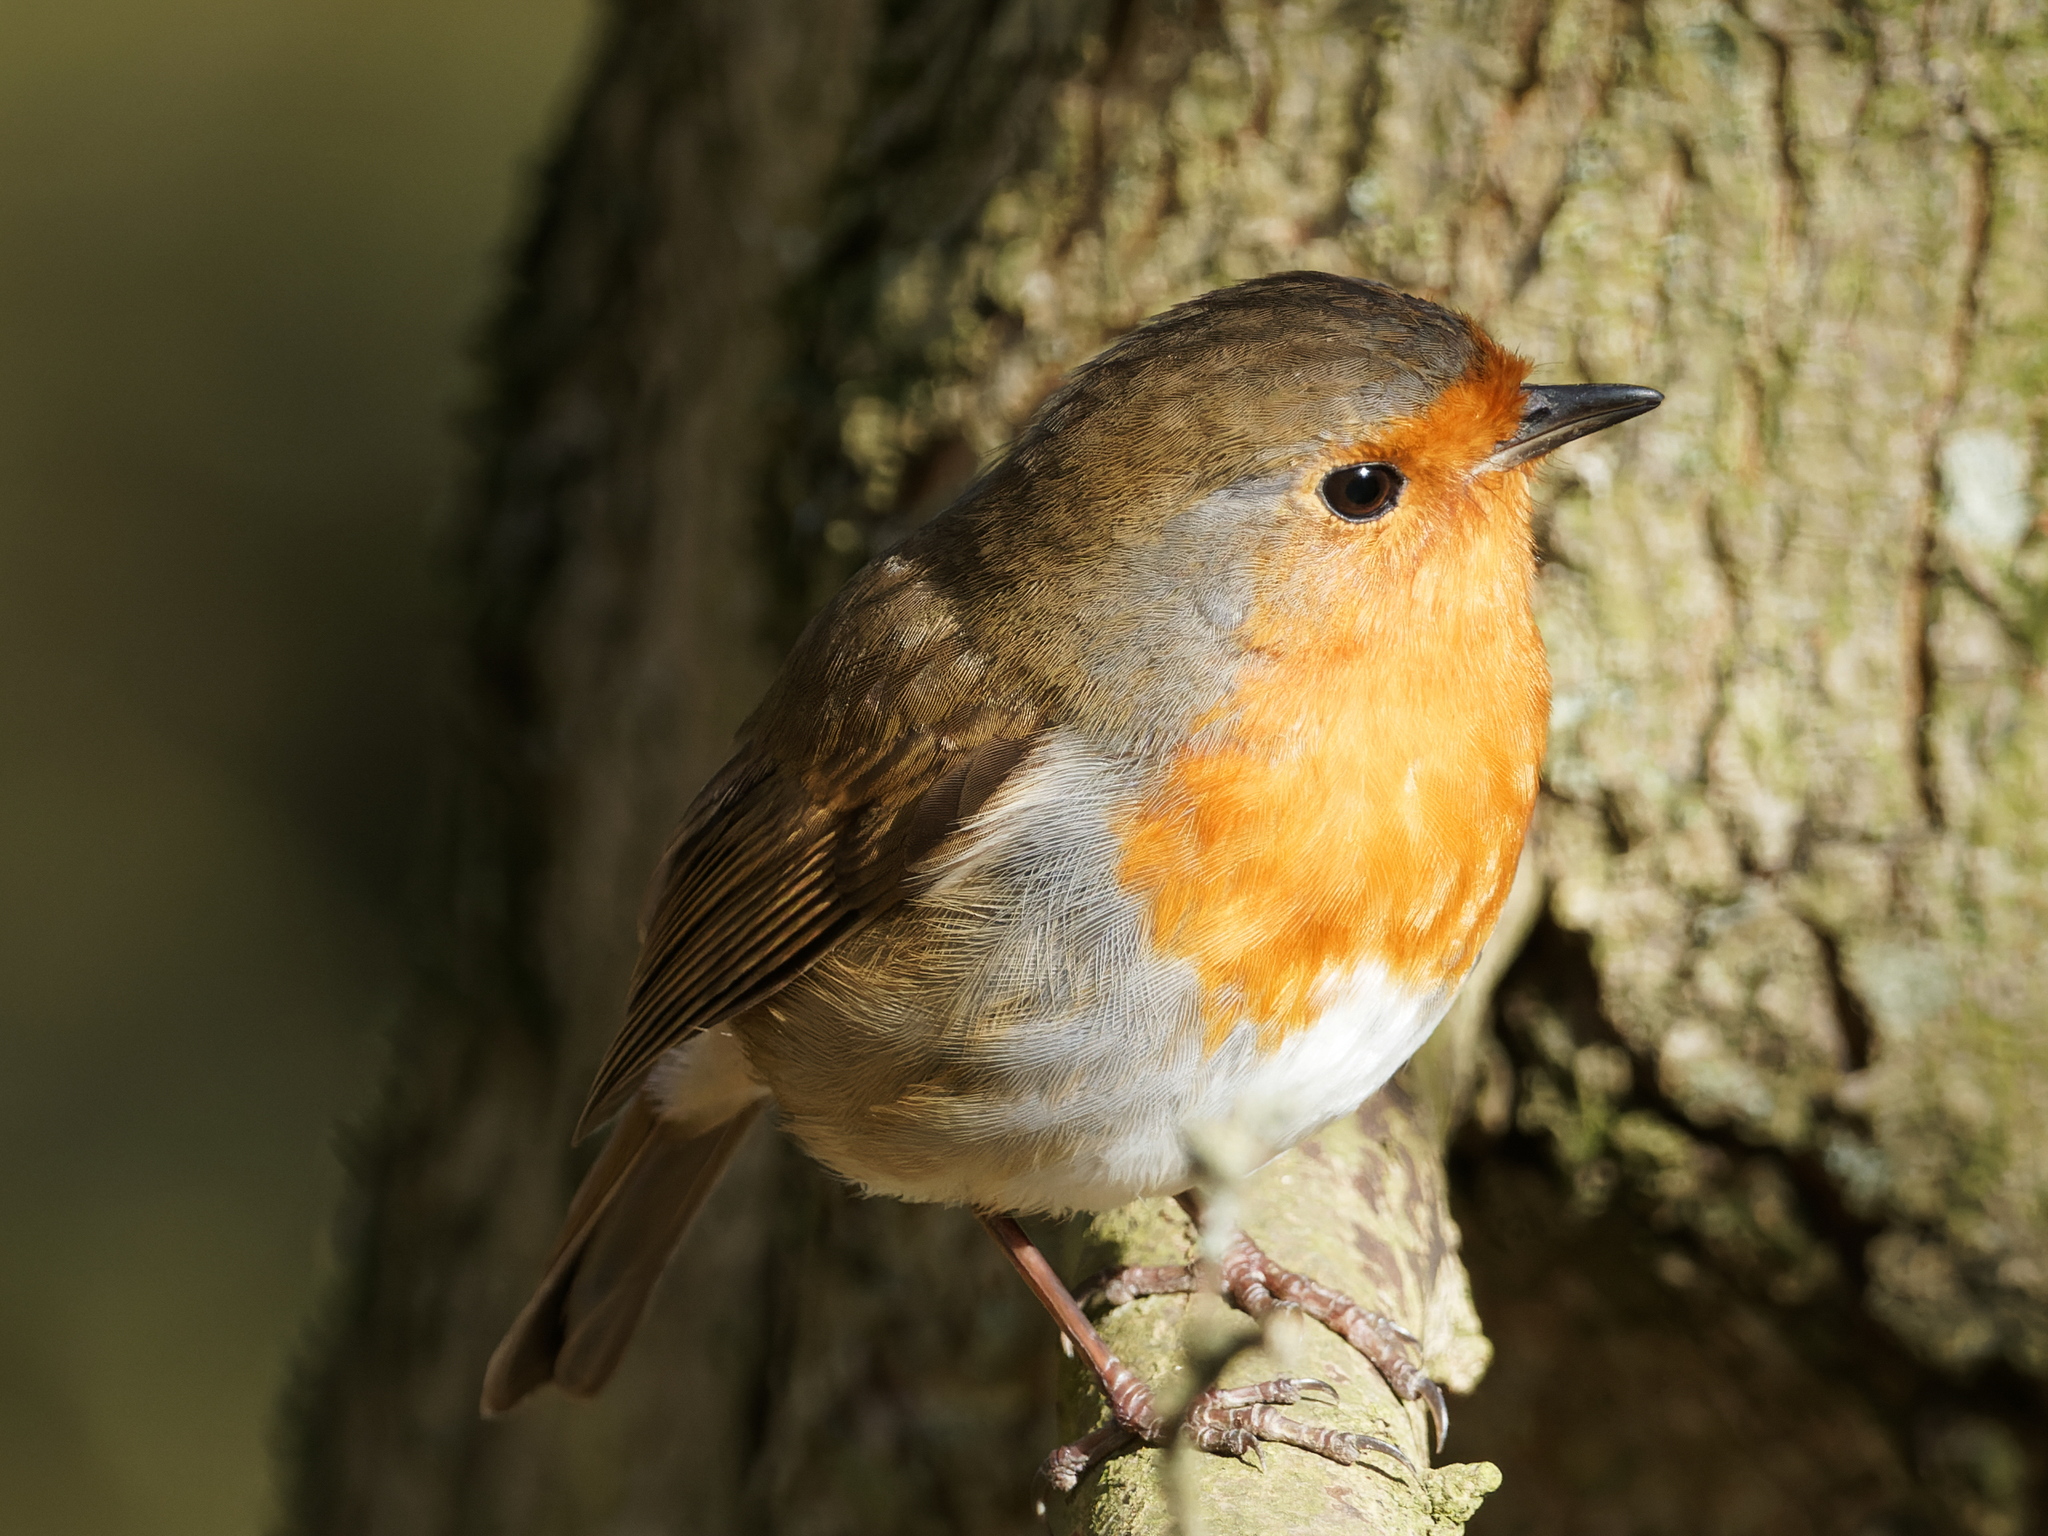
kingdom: Animalia
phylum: Chordata
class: Aves
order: Passeriformes
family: Muscicapidae
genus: Erithacus
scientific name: Erithacus rubecula
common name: European robin
